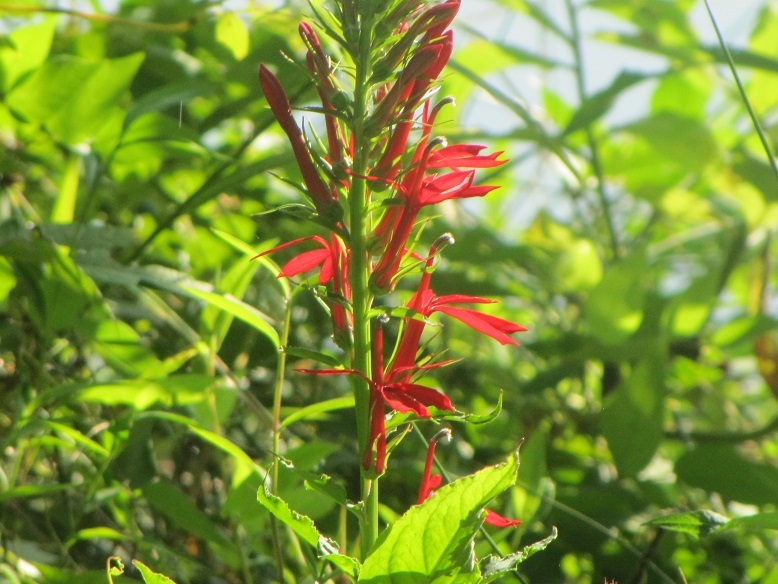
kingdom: Plantae
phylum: Tracheophyta
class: Magnoliopsida
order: Asterales
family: Campanulaceae
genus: Lobelia
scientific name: Lobelia cardinalis
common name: Cardinal flower
